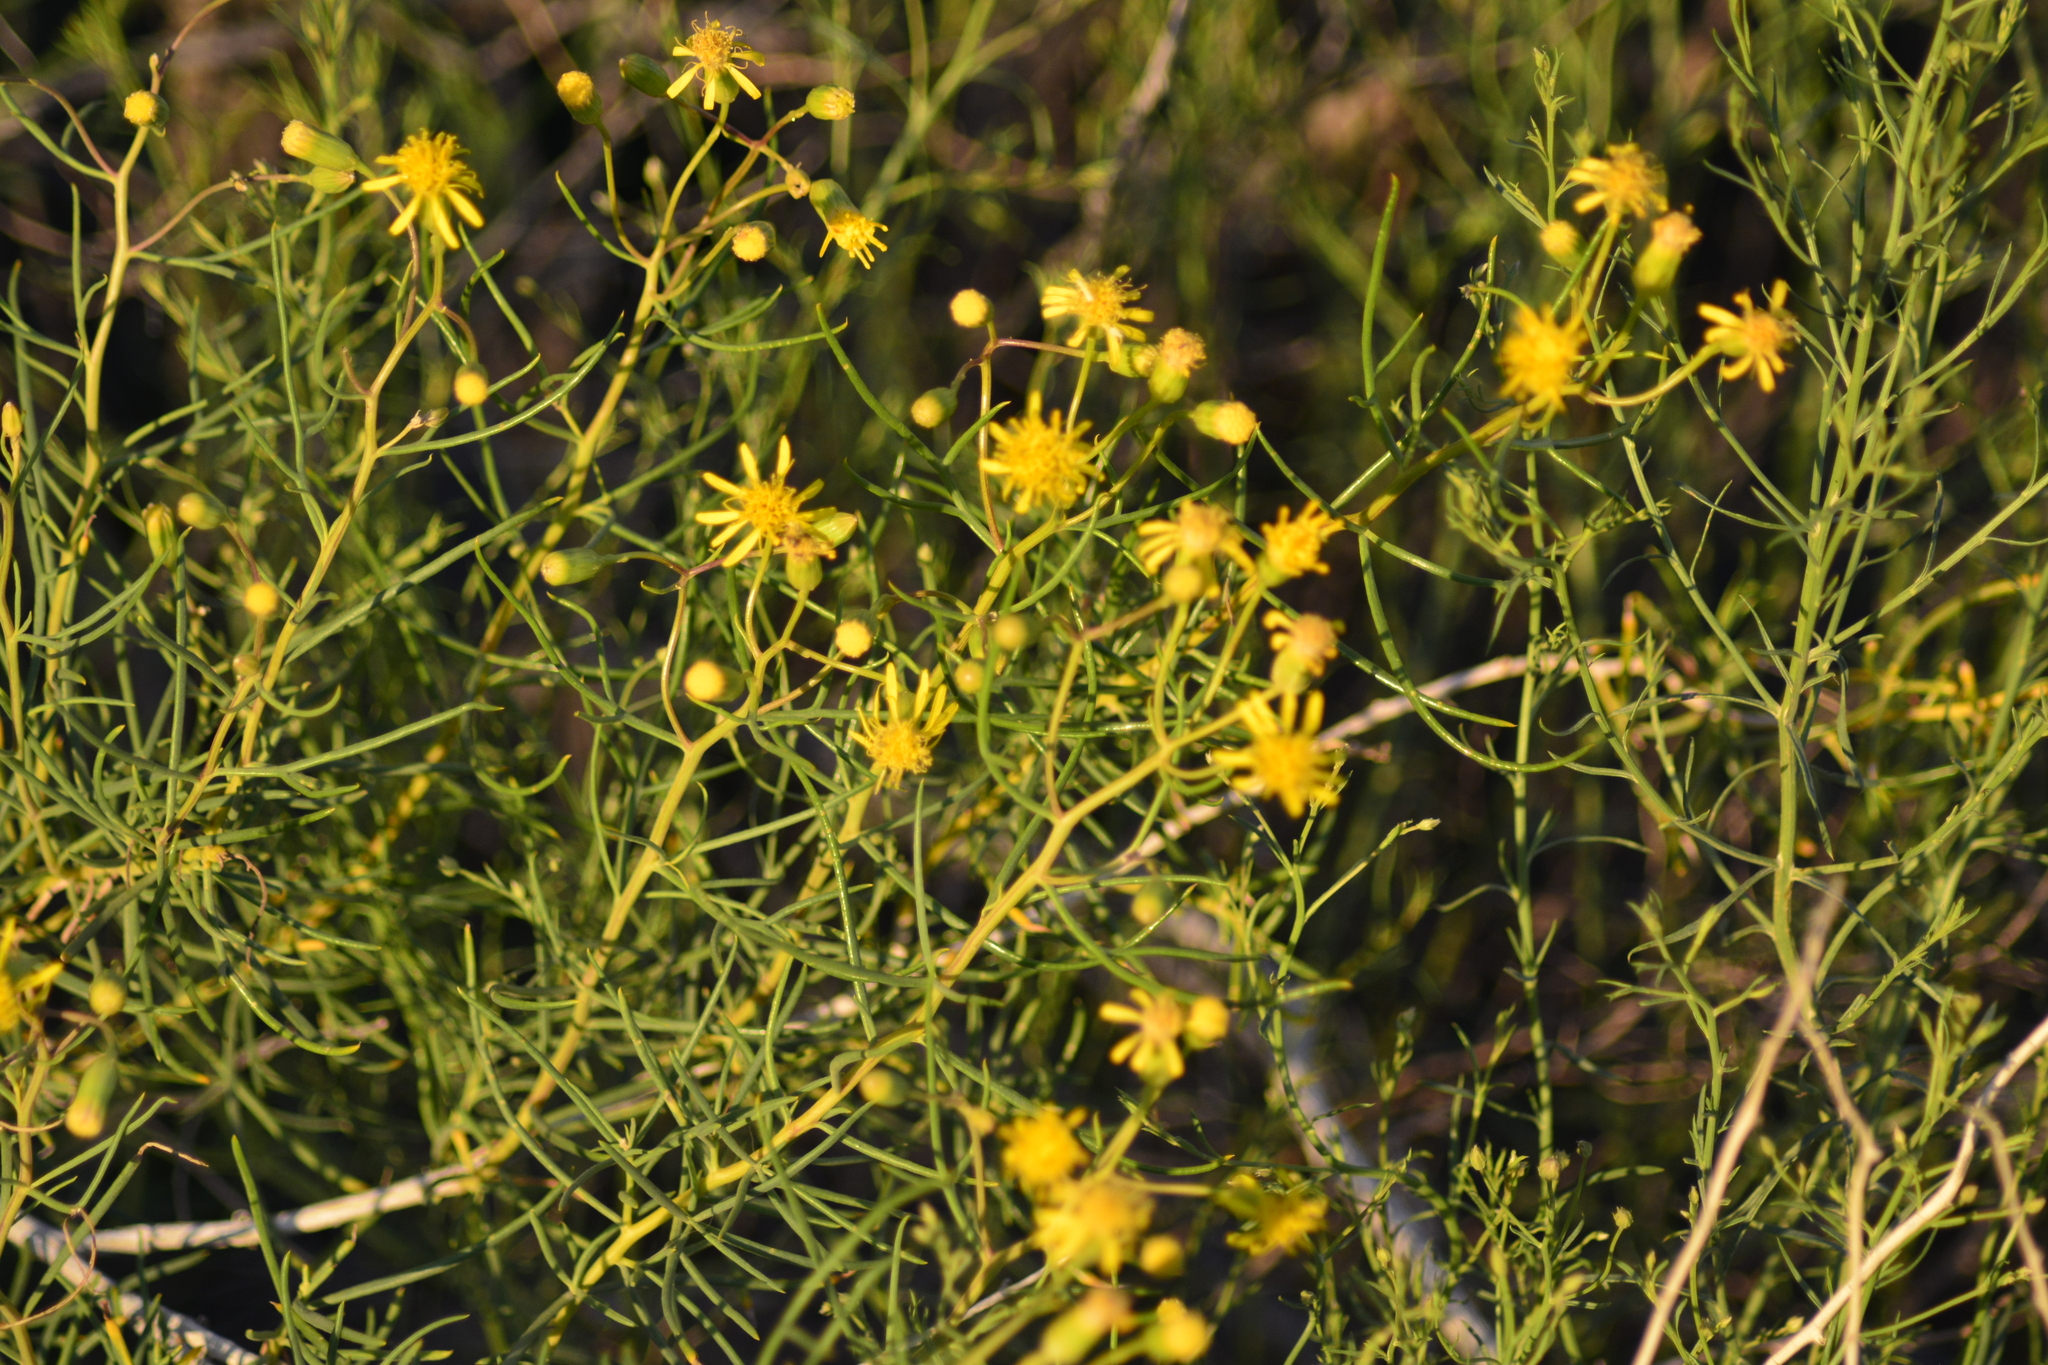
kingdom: Plantae
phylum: Tracheophyta
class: Magnoliopsida
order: Asterales
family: Asteraceae
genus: Senecio
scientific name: Senecio subulatus
